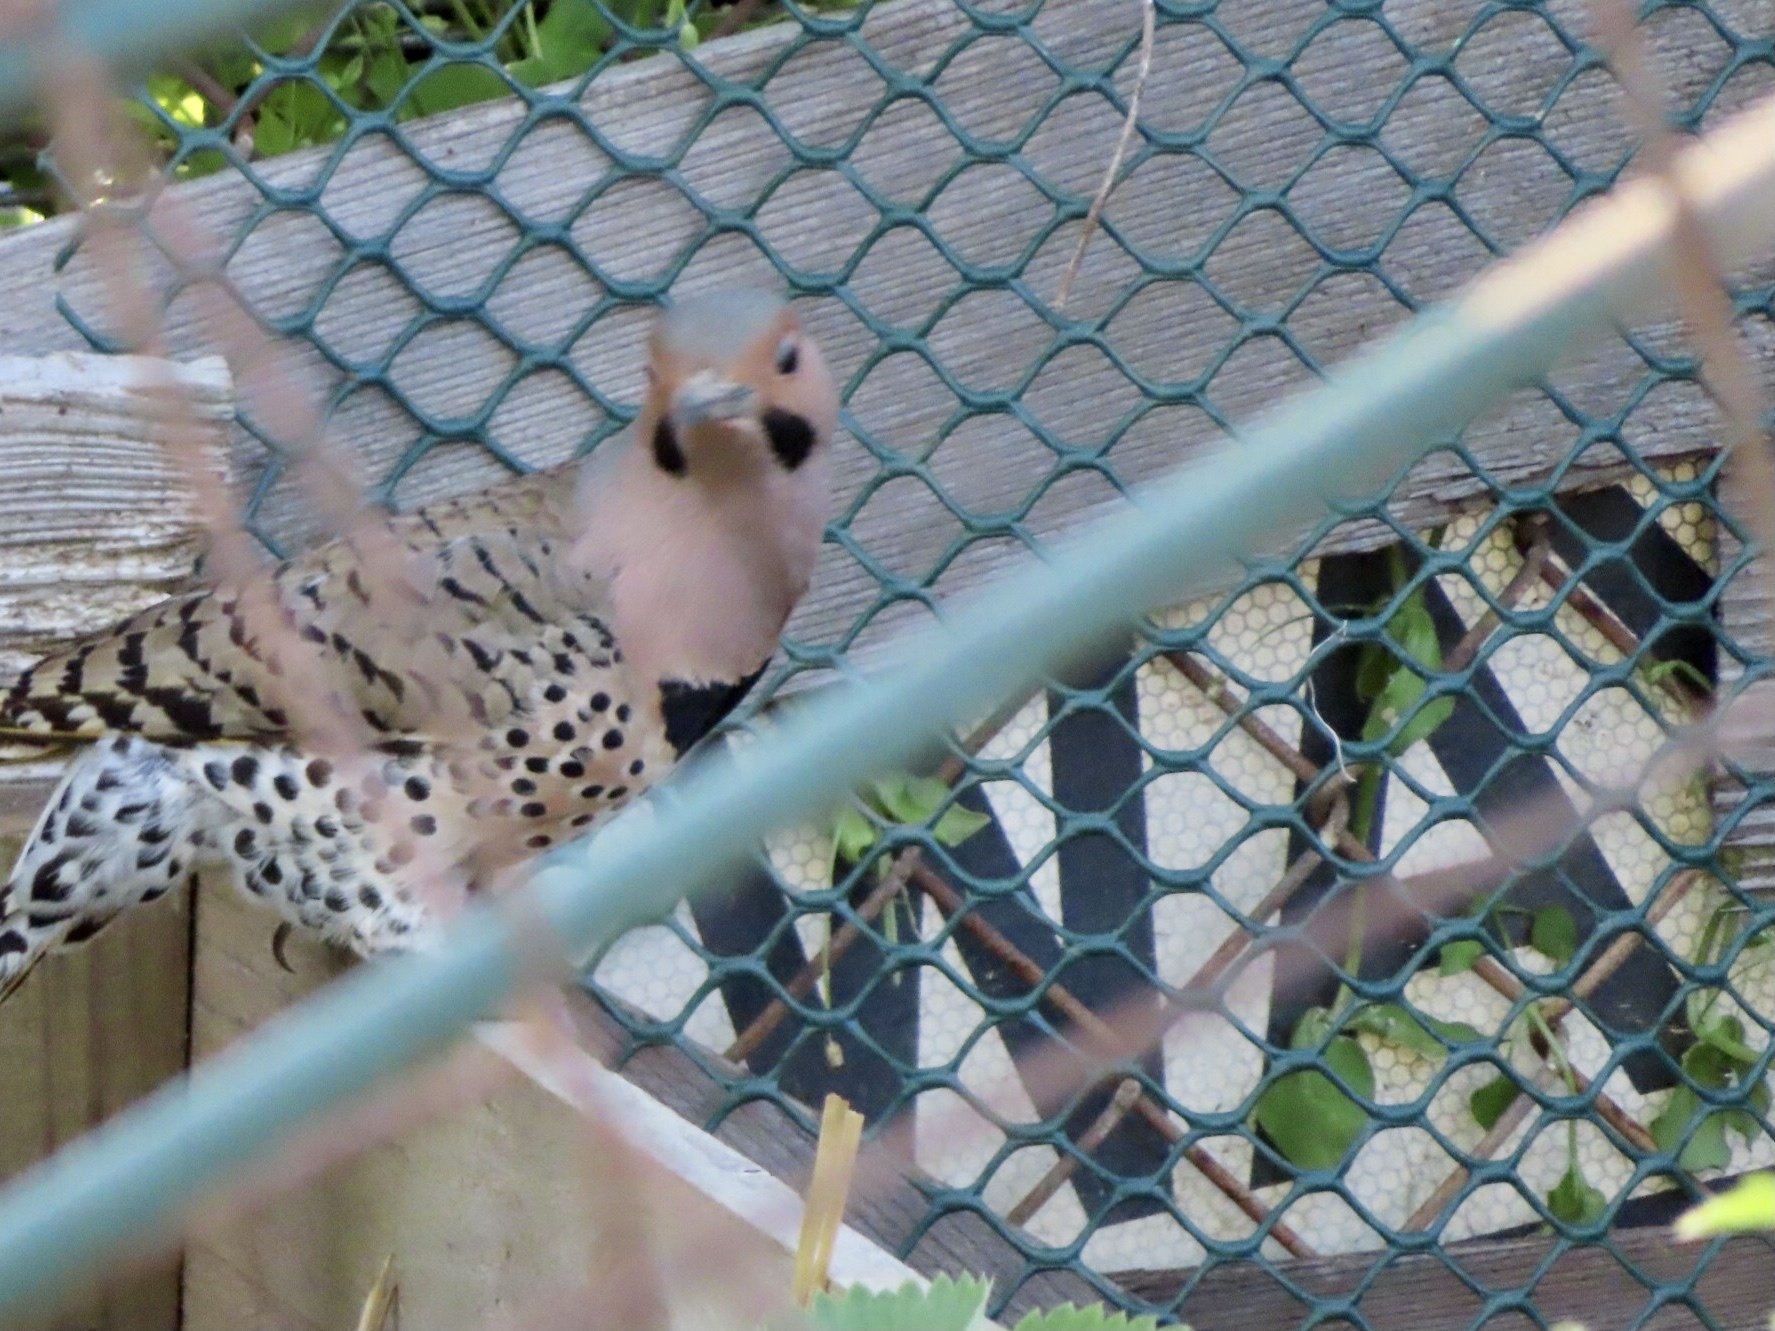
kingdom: Animalia
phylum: Chordata
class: Aves
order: Piciformes
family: Picidae
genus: Colaptes
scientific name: Colaptes auratus
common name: Northern flicker
